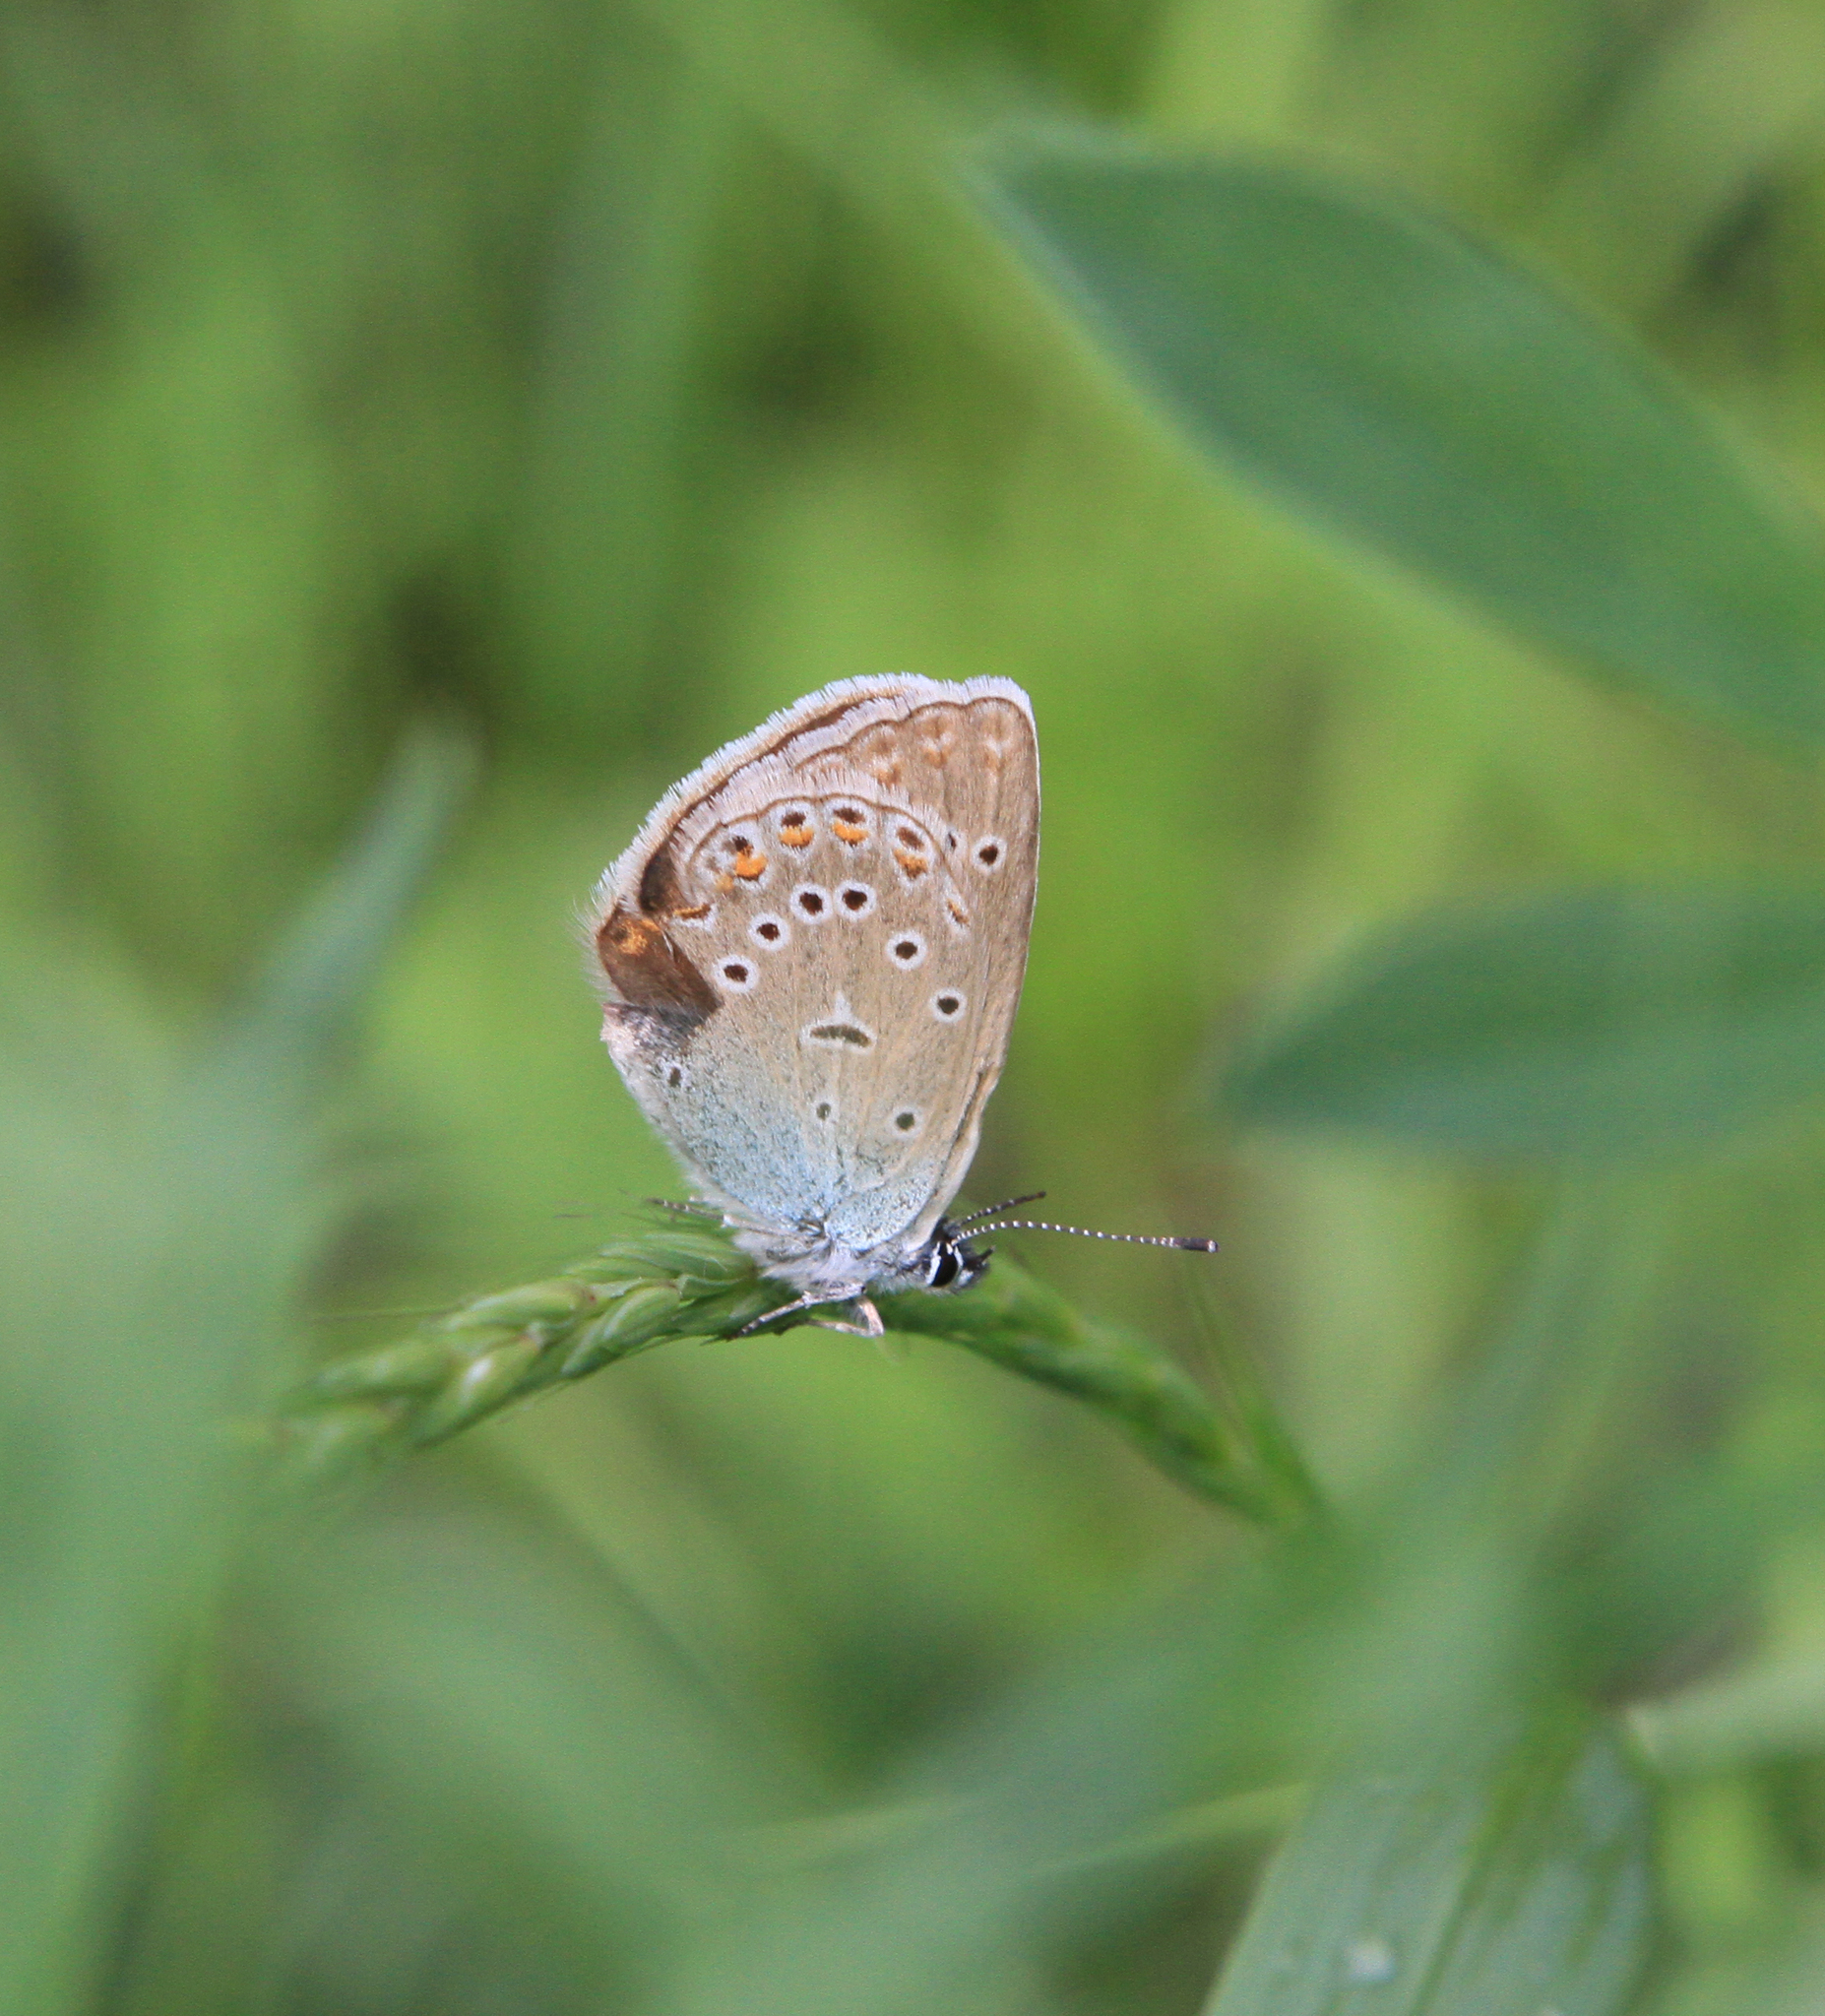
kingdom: Animalia
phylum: Arthropoda
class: Insecta
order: Lepidoptera
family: Lycaenidae
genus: Plebejus
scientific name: Plebejus amanda
